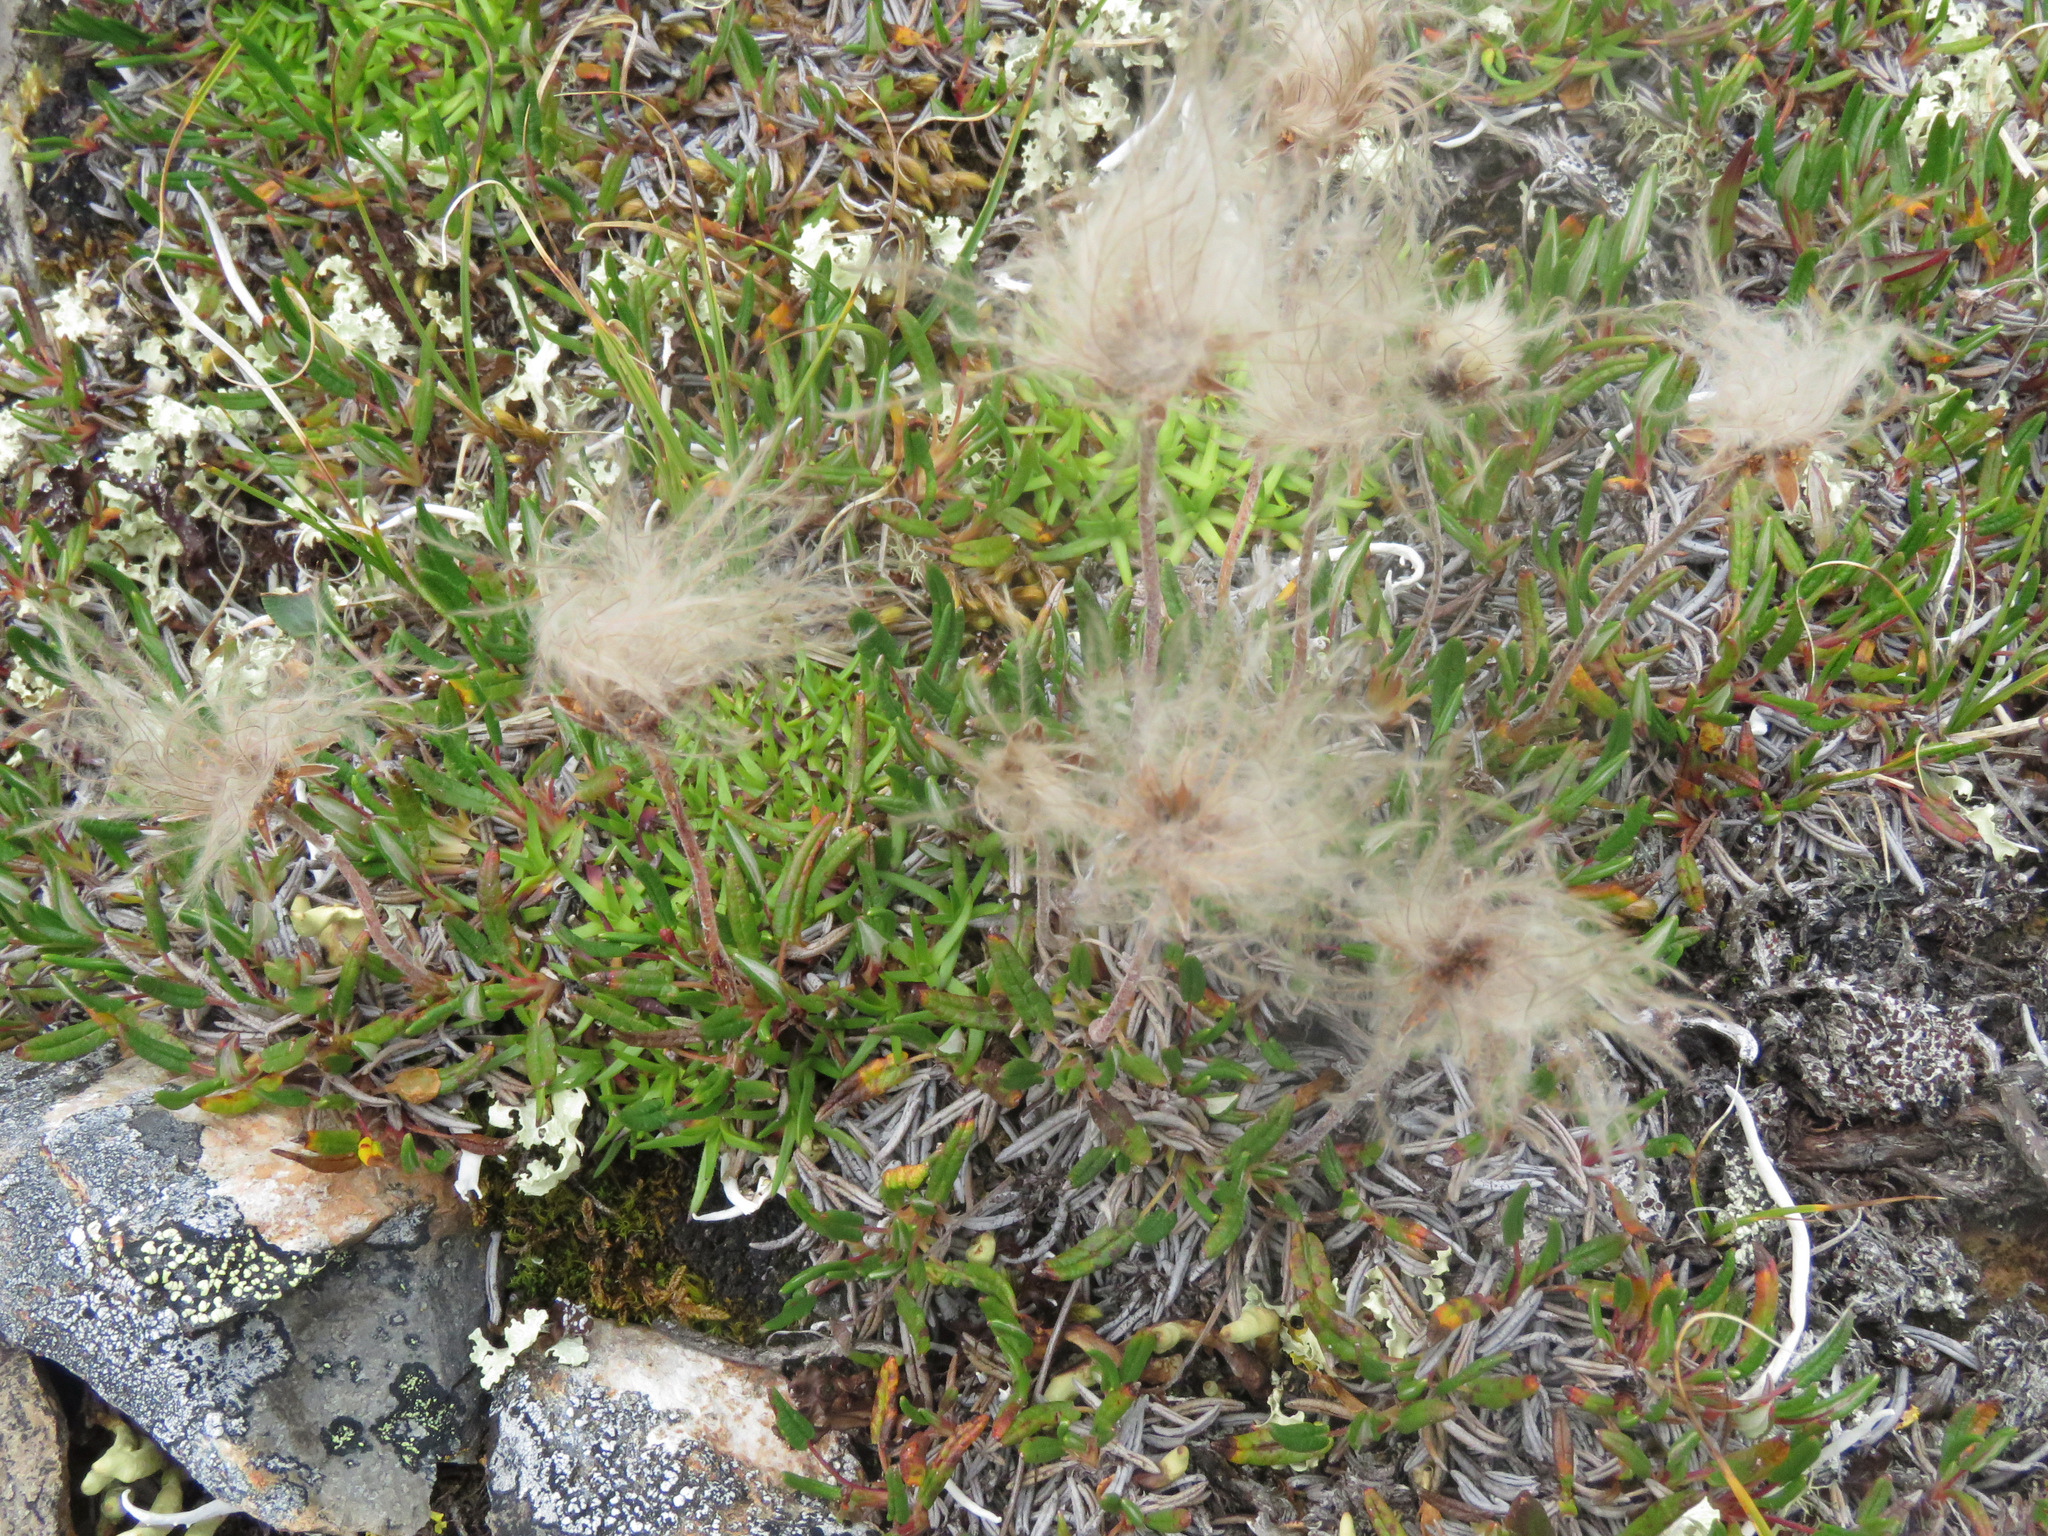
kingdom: Plantae
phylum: Tracheophyta
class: Magnoliopsida
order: Rosales
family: Rosaceae
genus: Dryas
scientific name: Dryas integrifolia
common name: Entire-leaved mountain avens
